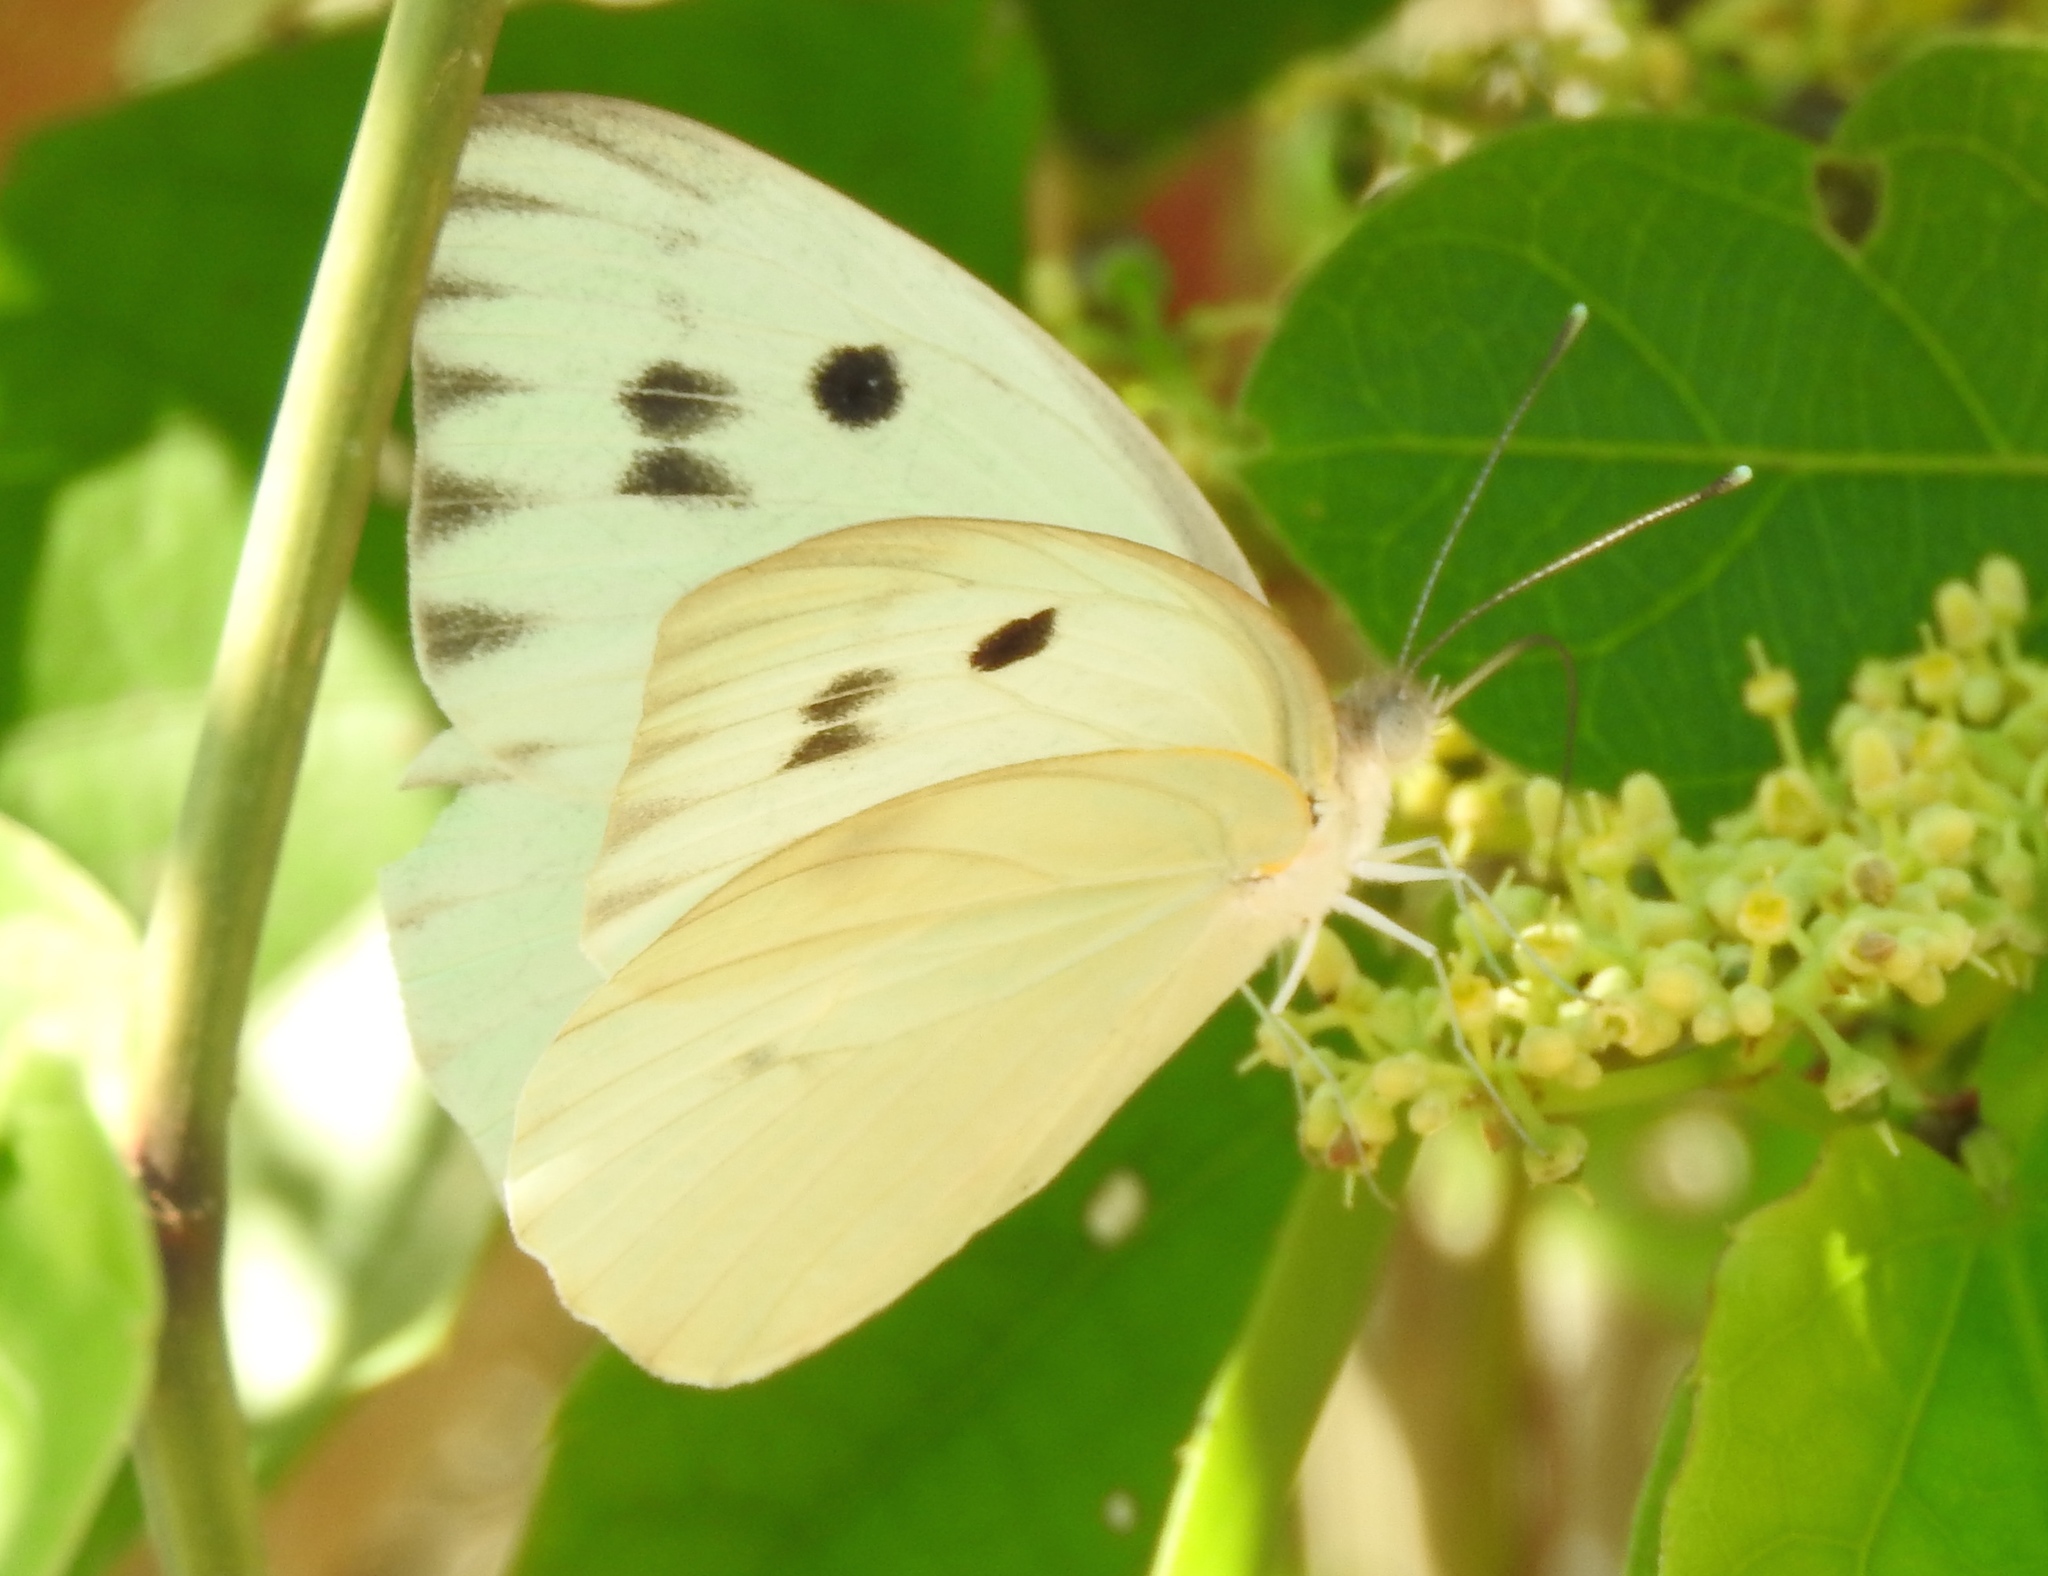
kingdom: Animalia
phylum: Arthropoda
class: Insecta
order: Lepidoptera
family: Pieridae
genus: Ganyra
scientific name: Ganyra josephina
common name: Giant white
